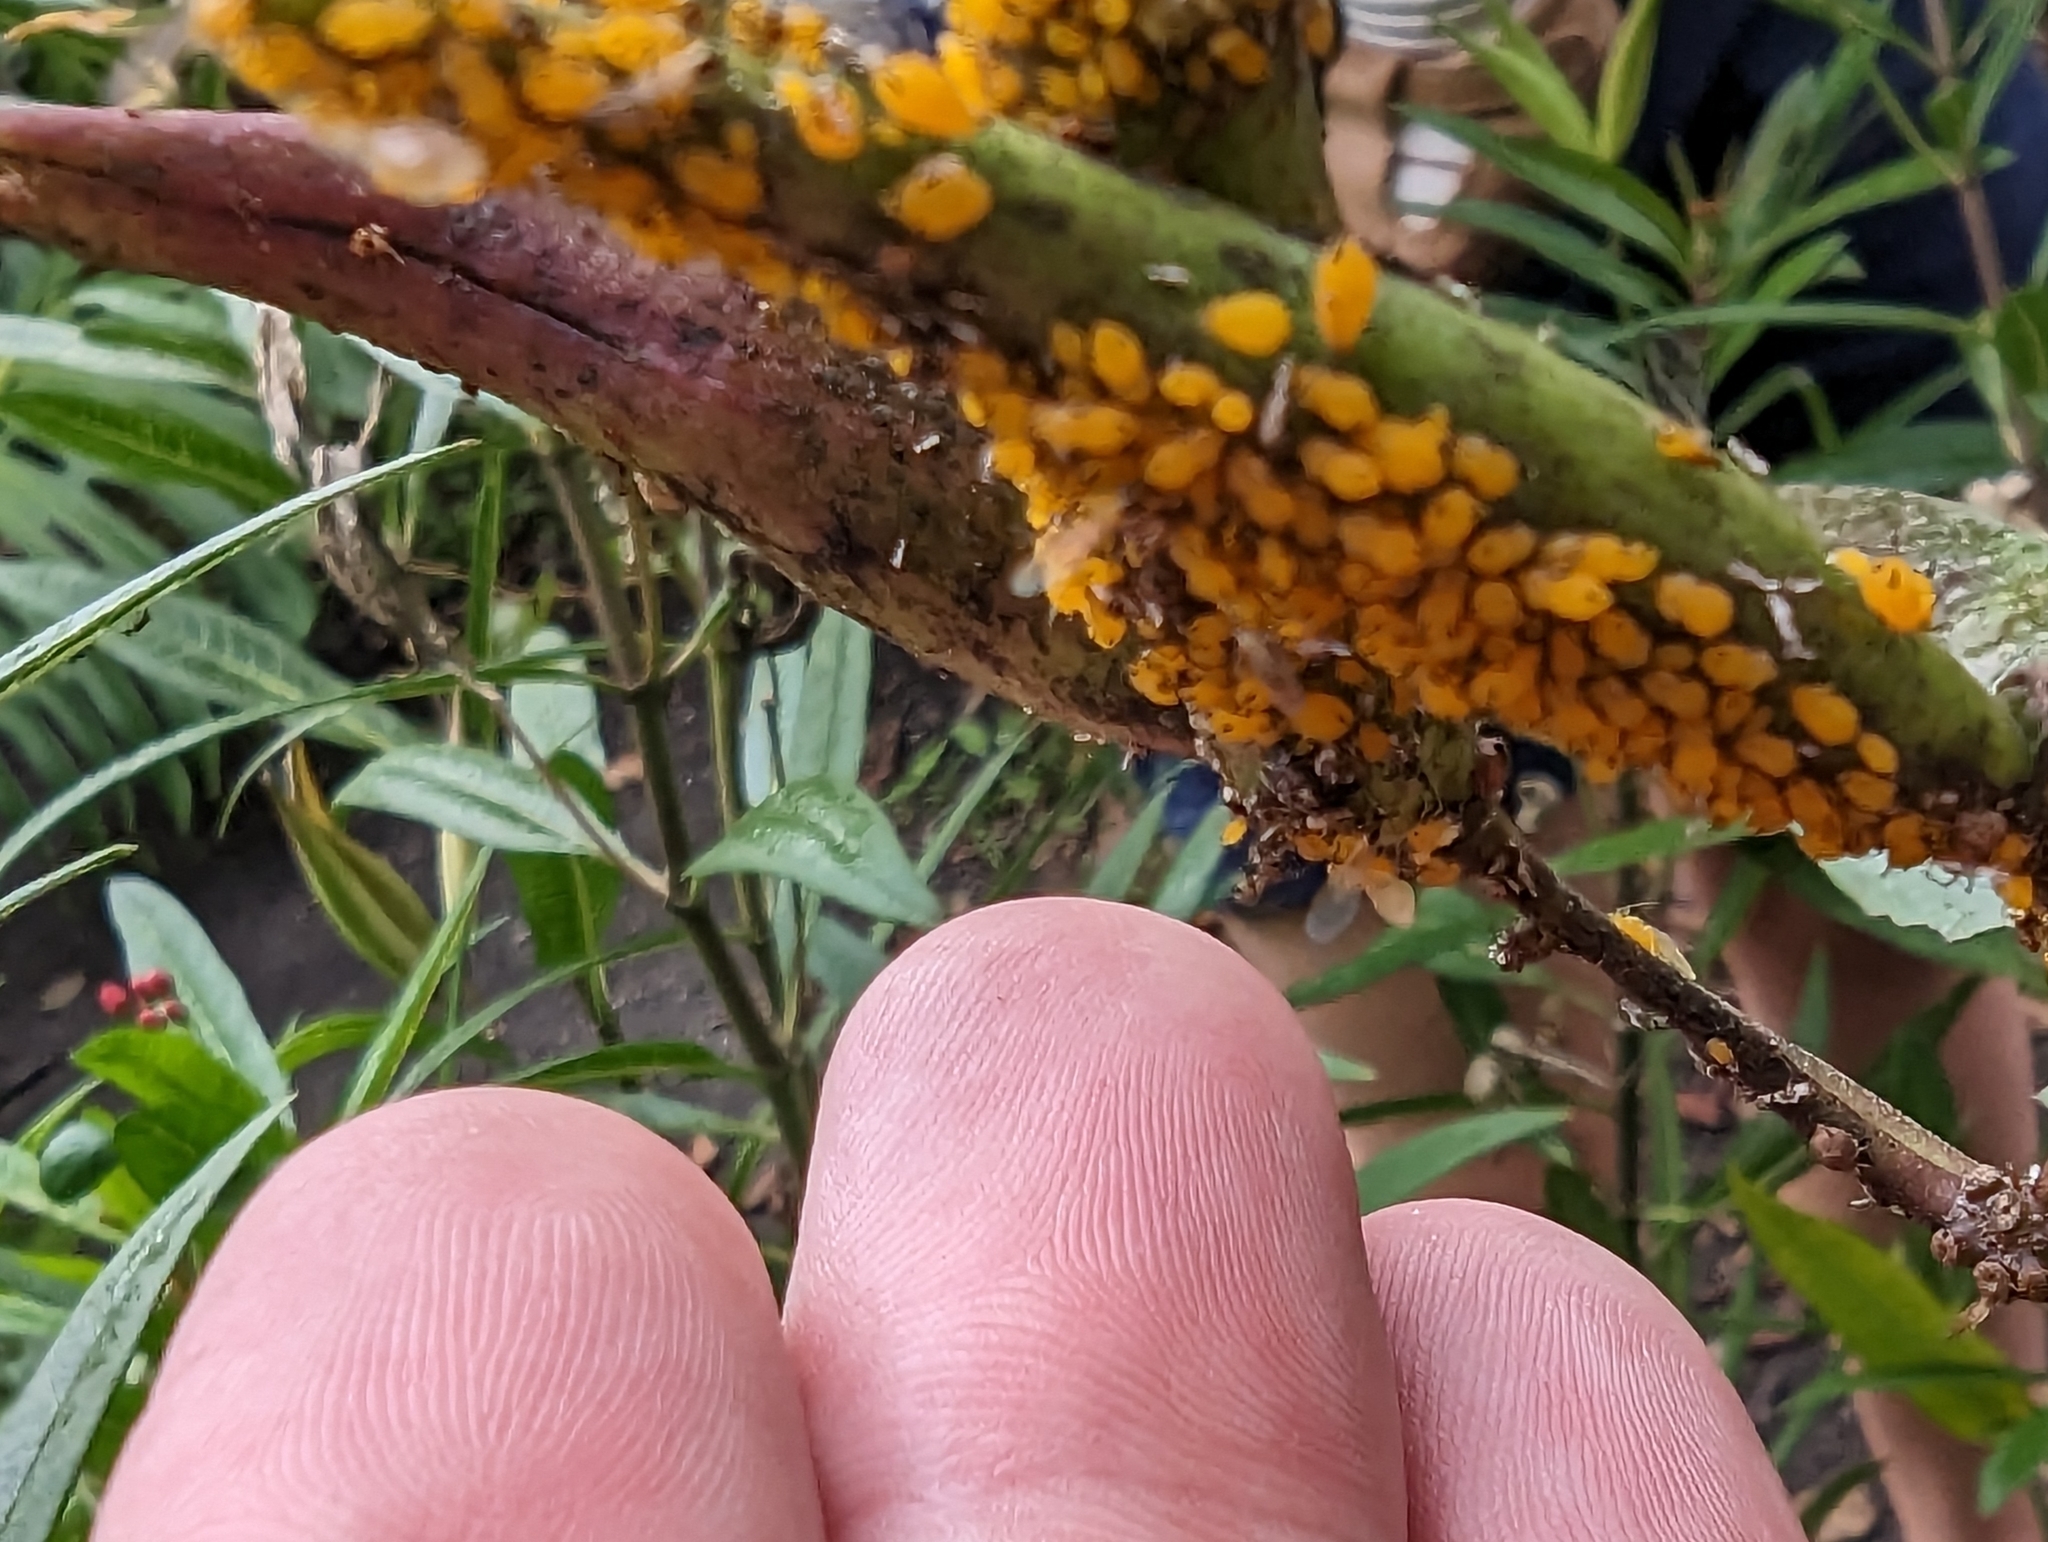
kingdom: Animalia
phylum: Arthropoda
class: Insecta
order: Hemiptera
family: Aphididae
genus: Aphis
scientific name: Aphis nerii
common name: Oleander aphid
